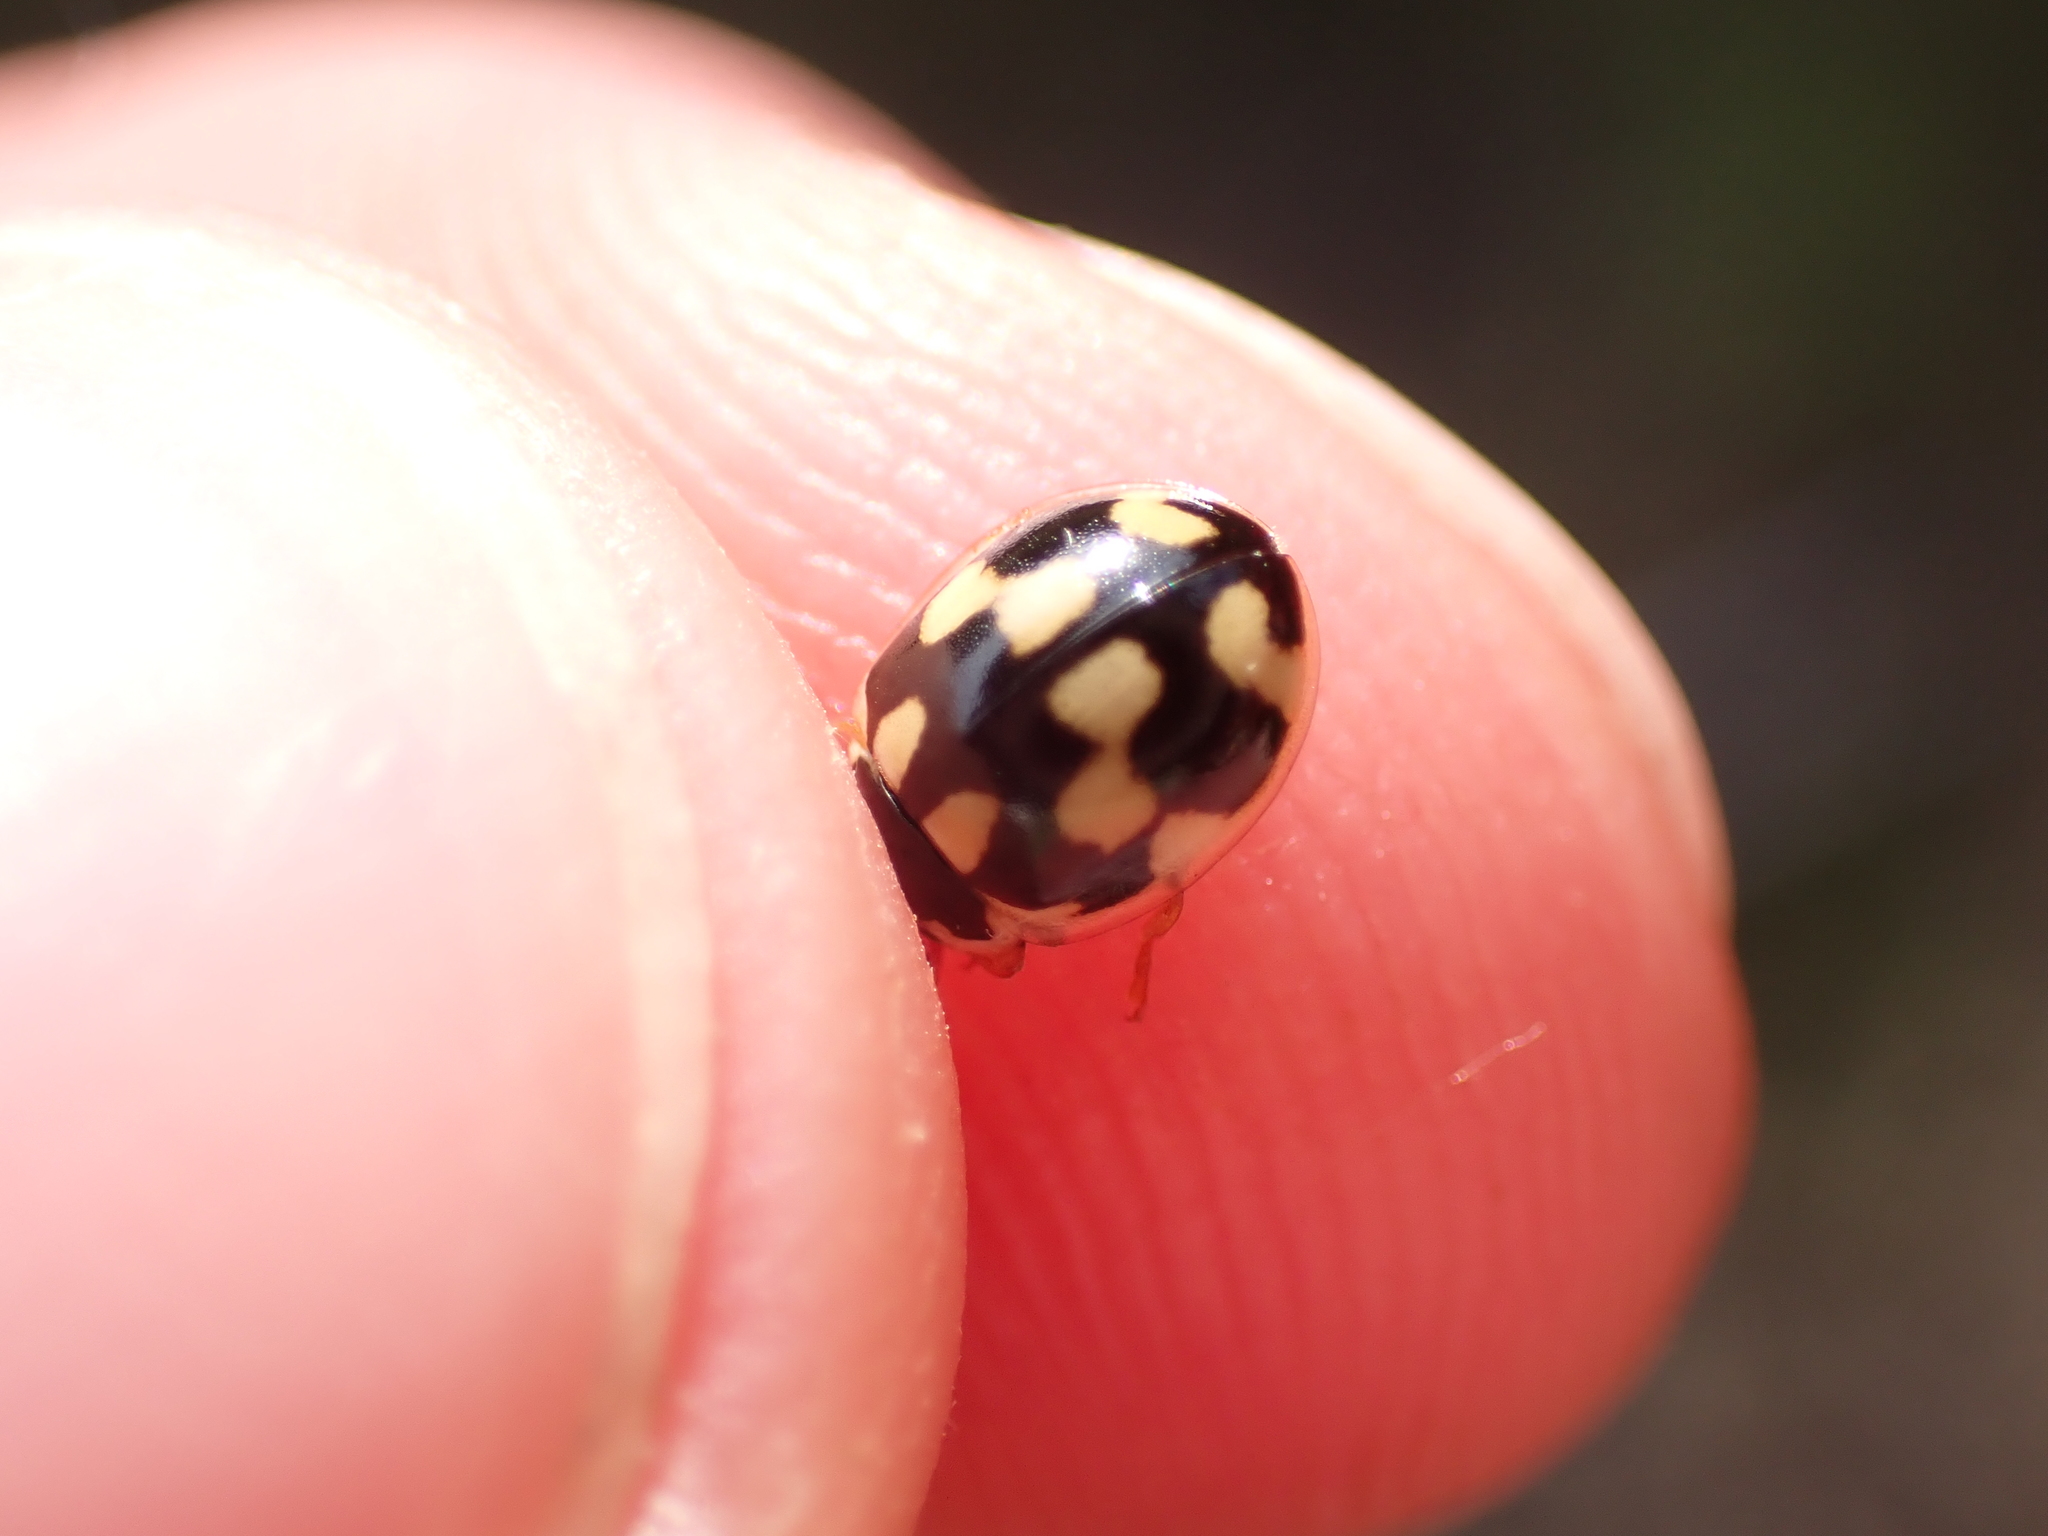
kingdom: Animalia
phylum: Arthropoda
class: Insecta
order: Coleoptera
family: Coccinellidae
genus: Propylaea
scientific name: Propylaea quatuordecimpunctata
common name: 14-spotted ladybird beetle
